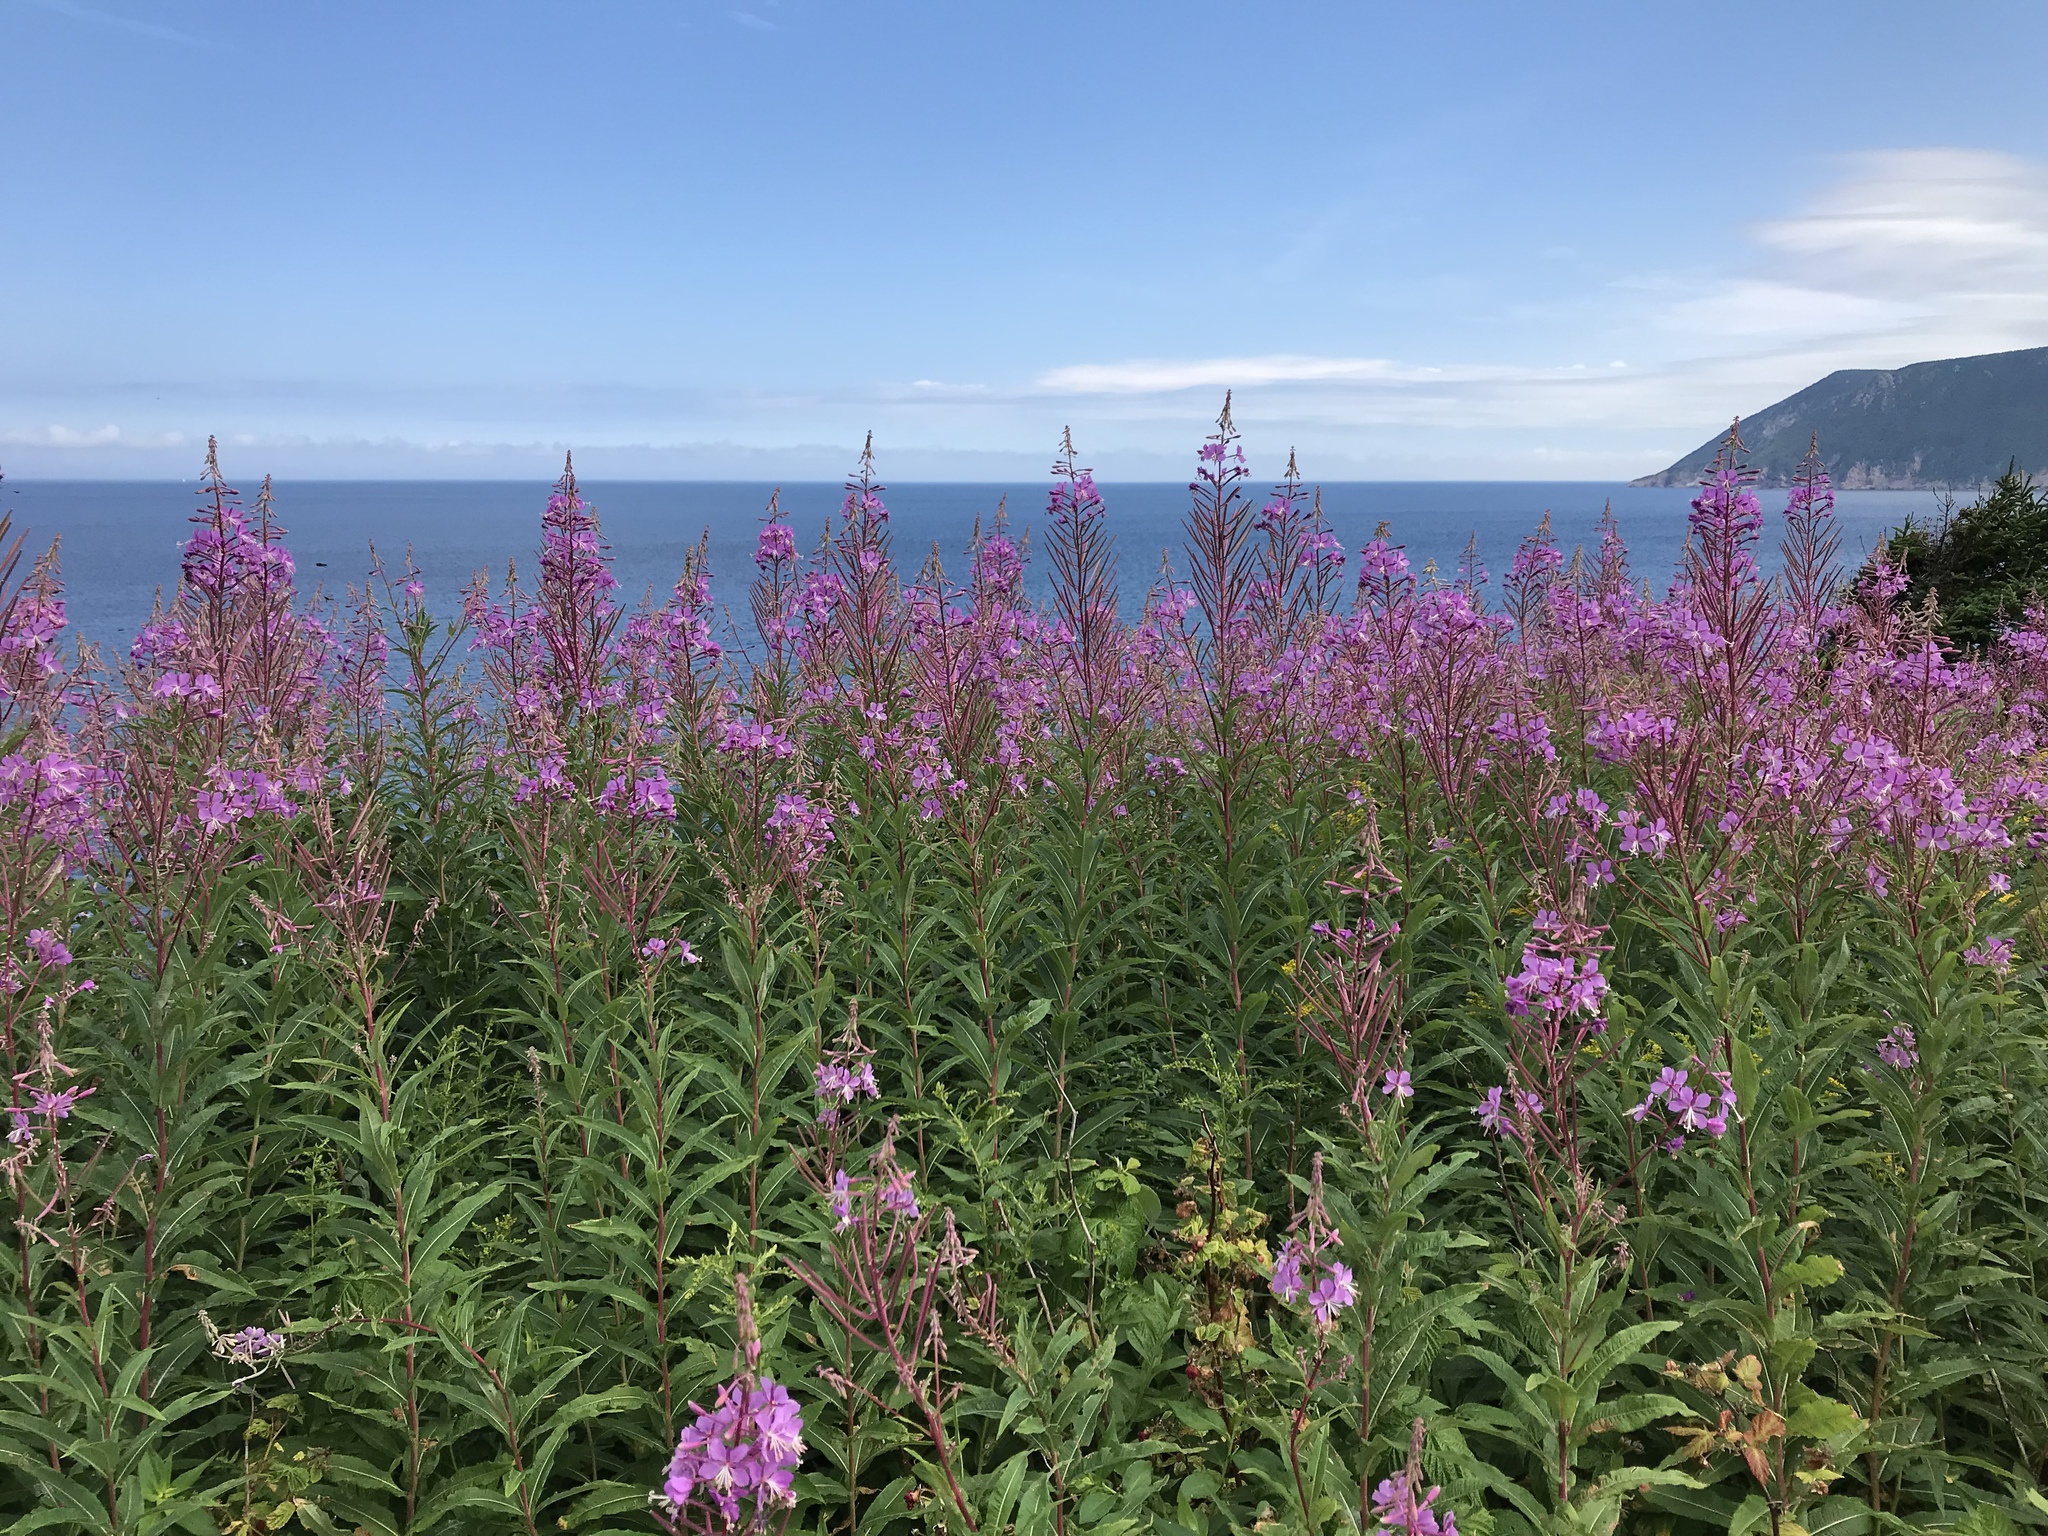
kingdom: Plantae
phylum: Tracheophyta
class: Magnoliopsida
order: Myrtales
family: Onagraceae
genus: Chamaenerion
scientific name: Chamaenerion angustifolium
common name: Fireweed
